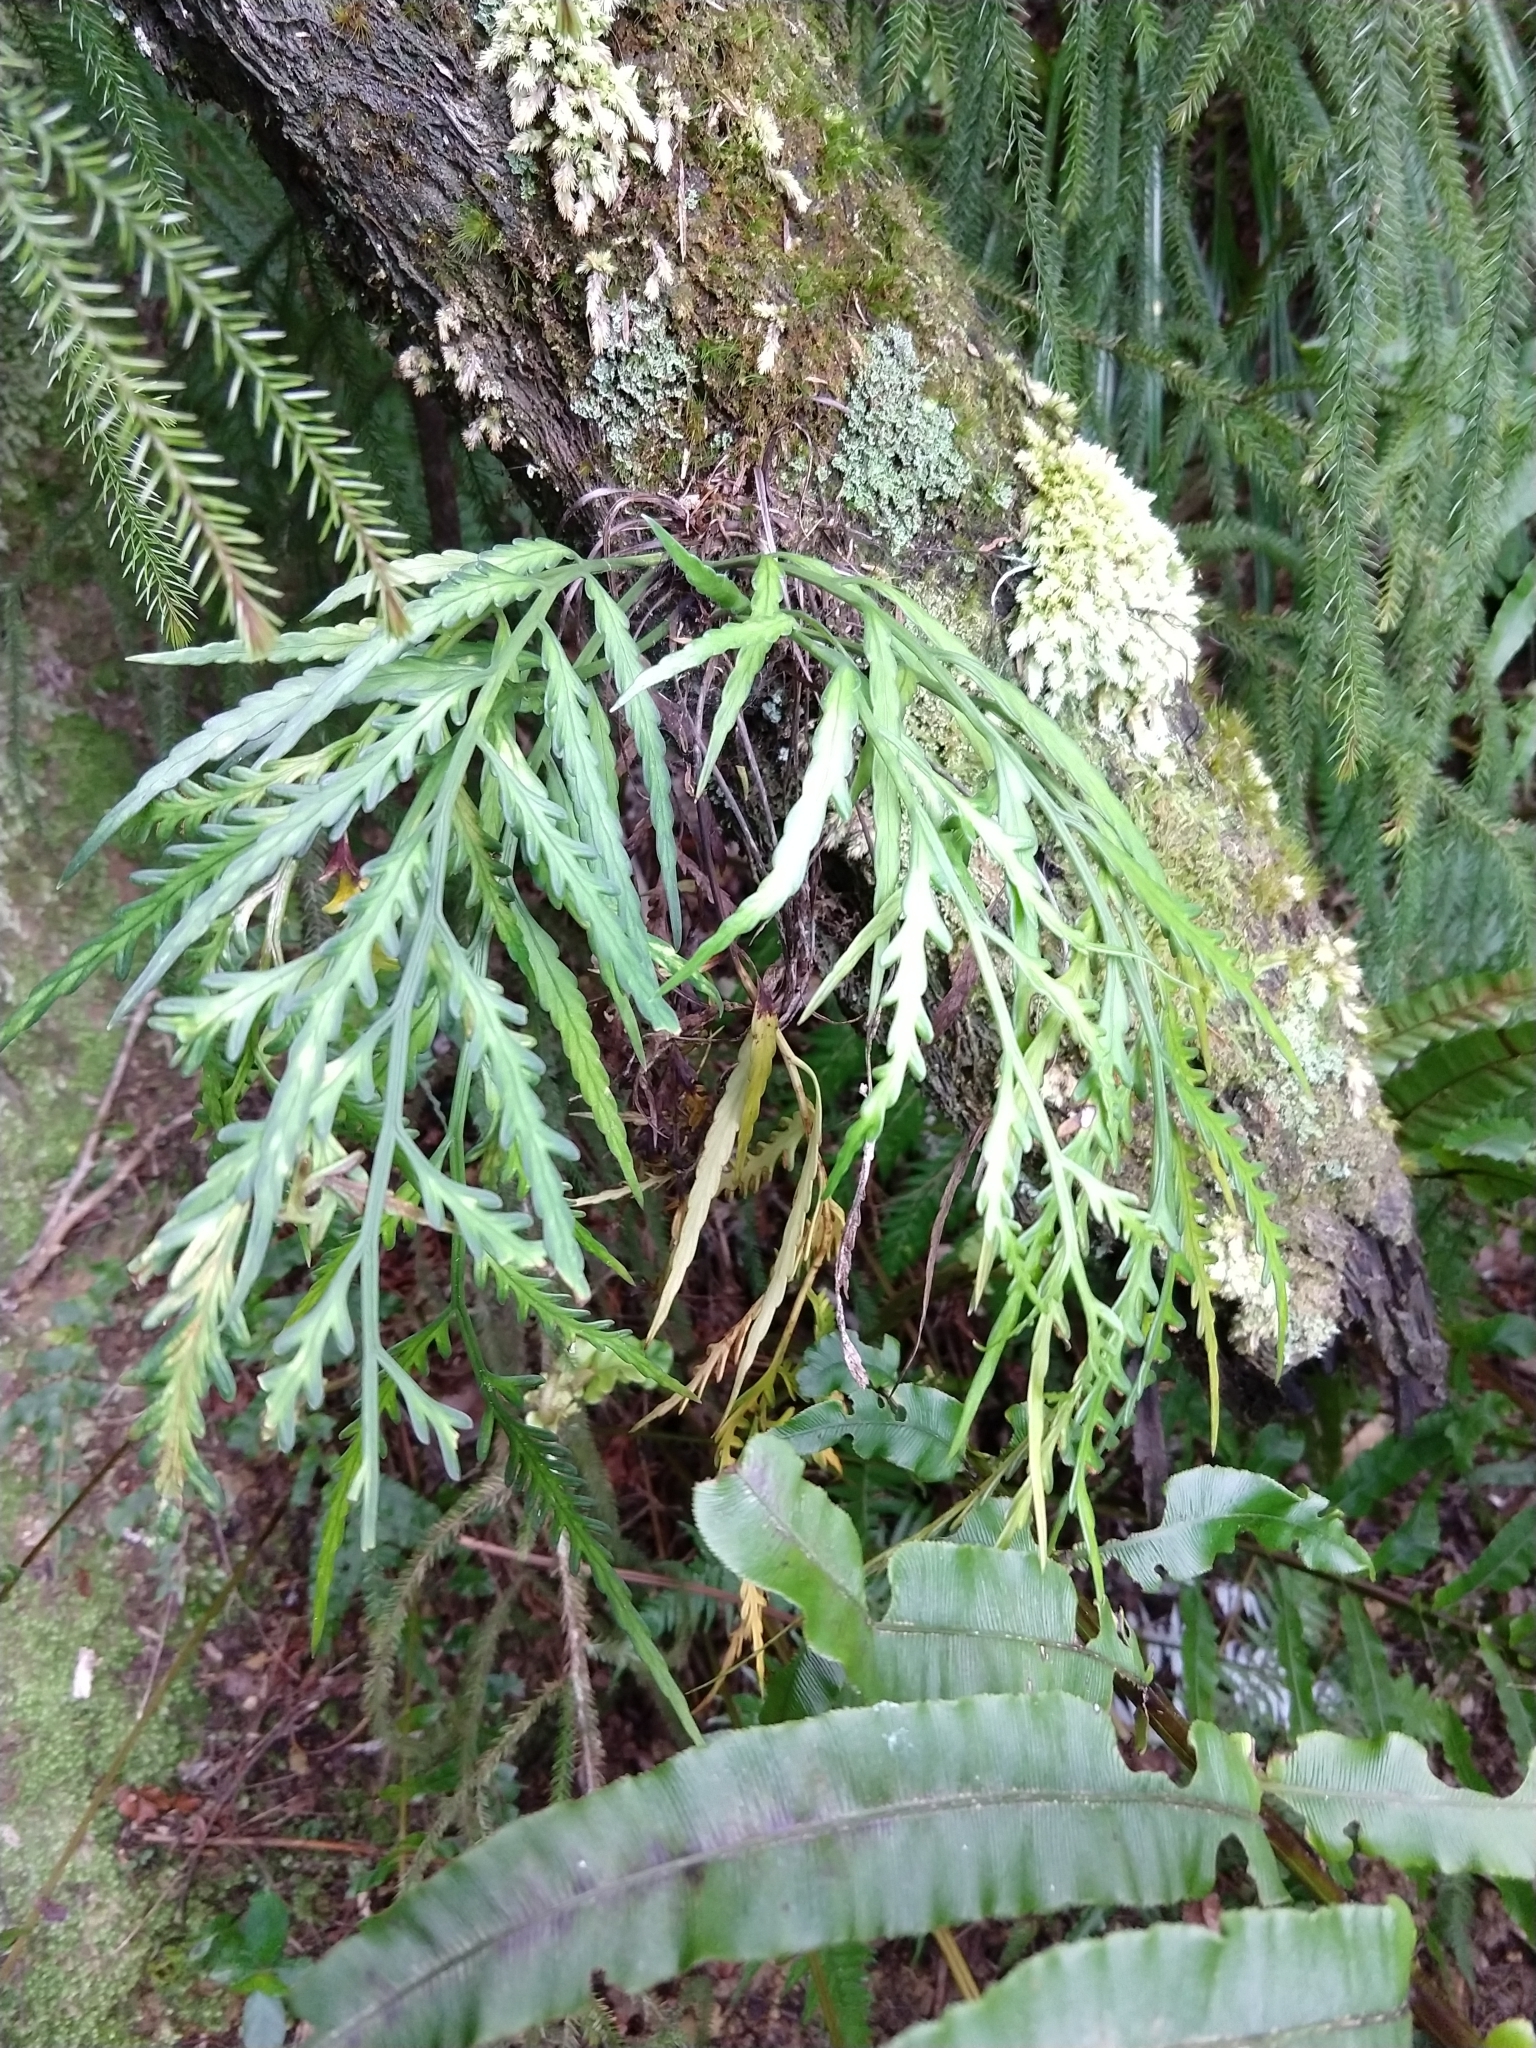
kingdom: Plantae
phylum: Tracheophyta
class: Polypodiopsida
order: Polypodiales
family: Aspleniaceae
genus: Asplenium
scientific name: Asplenium flaccidum
